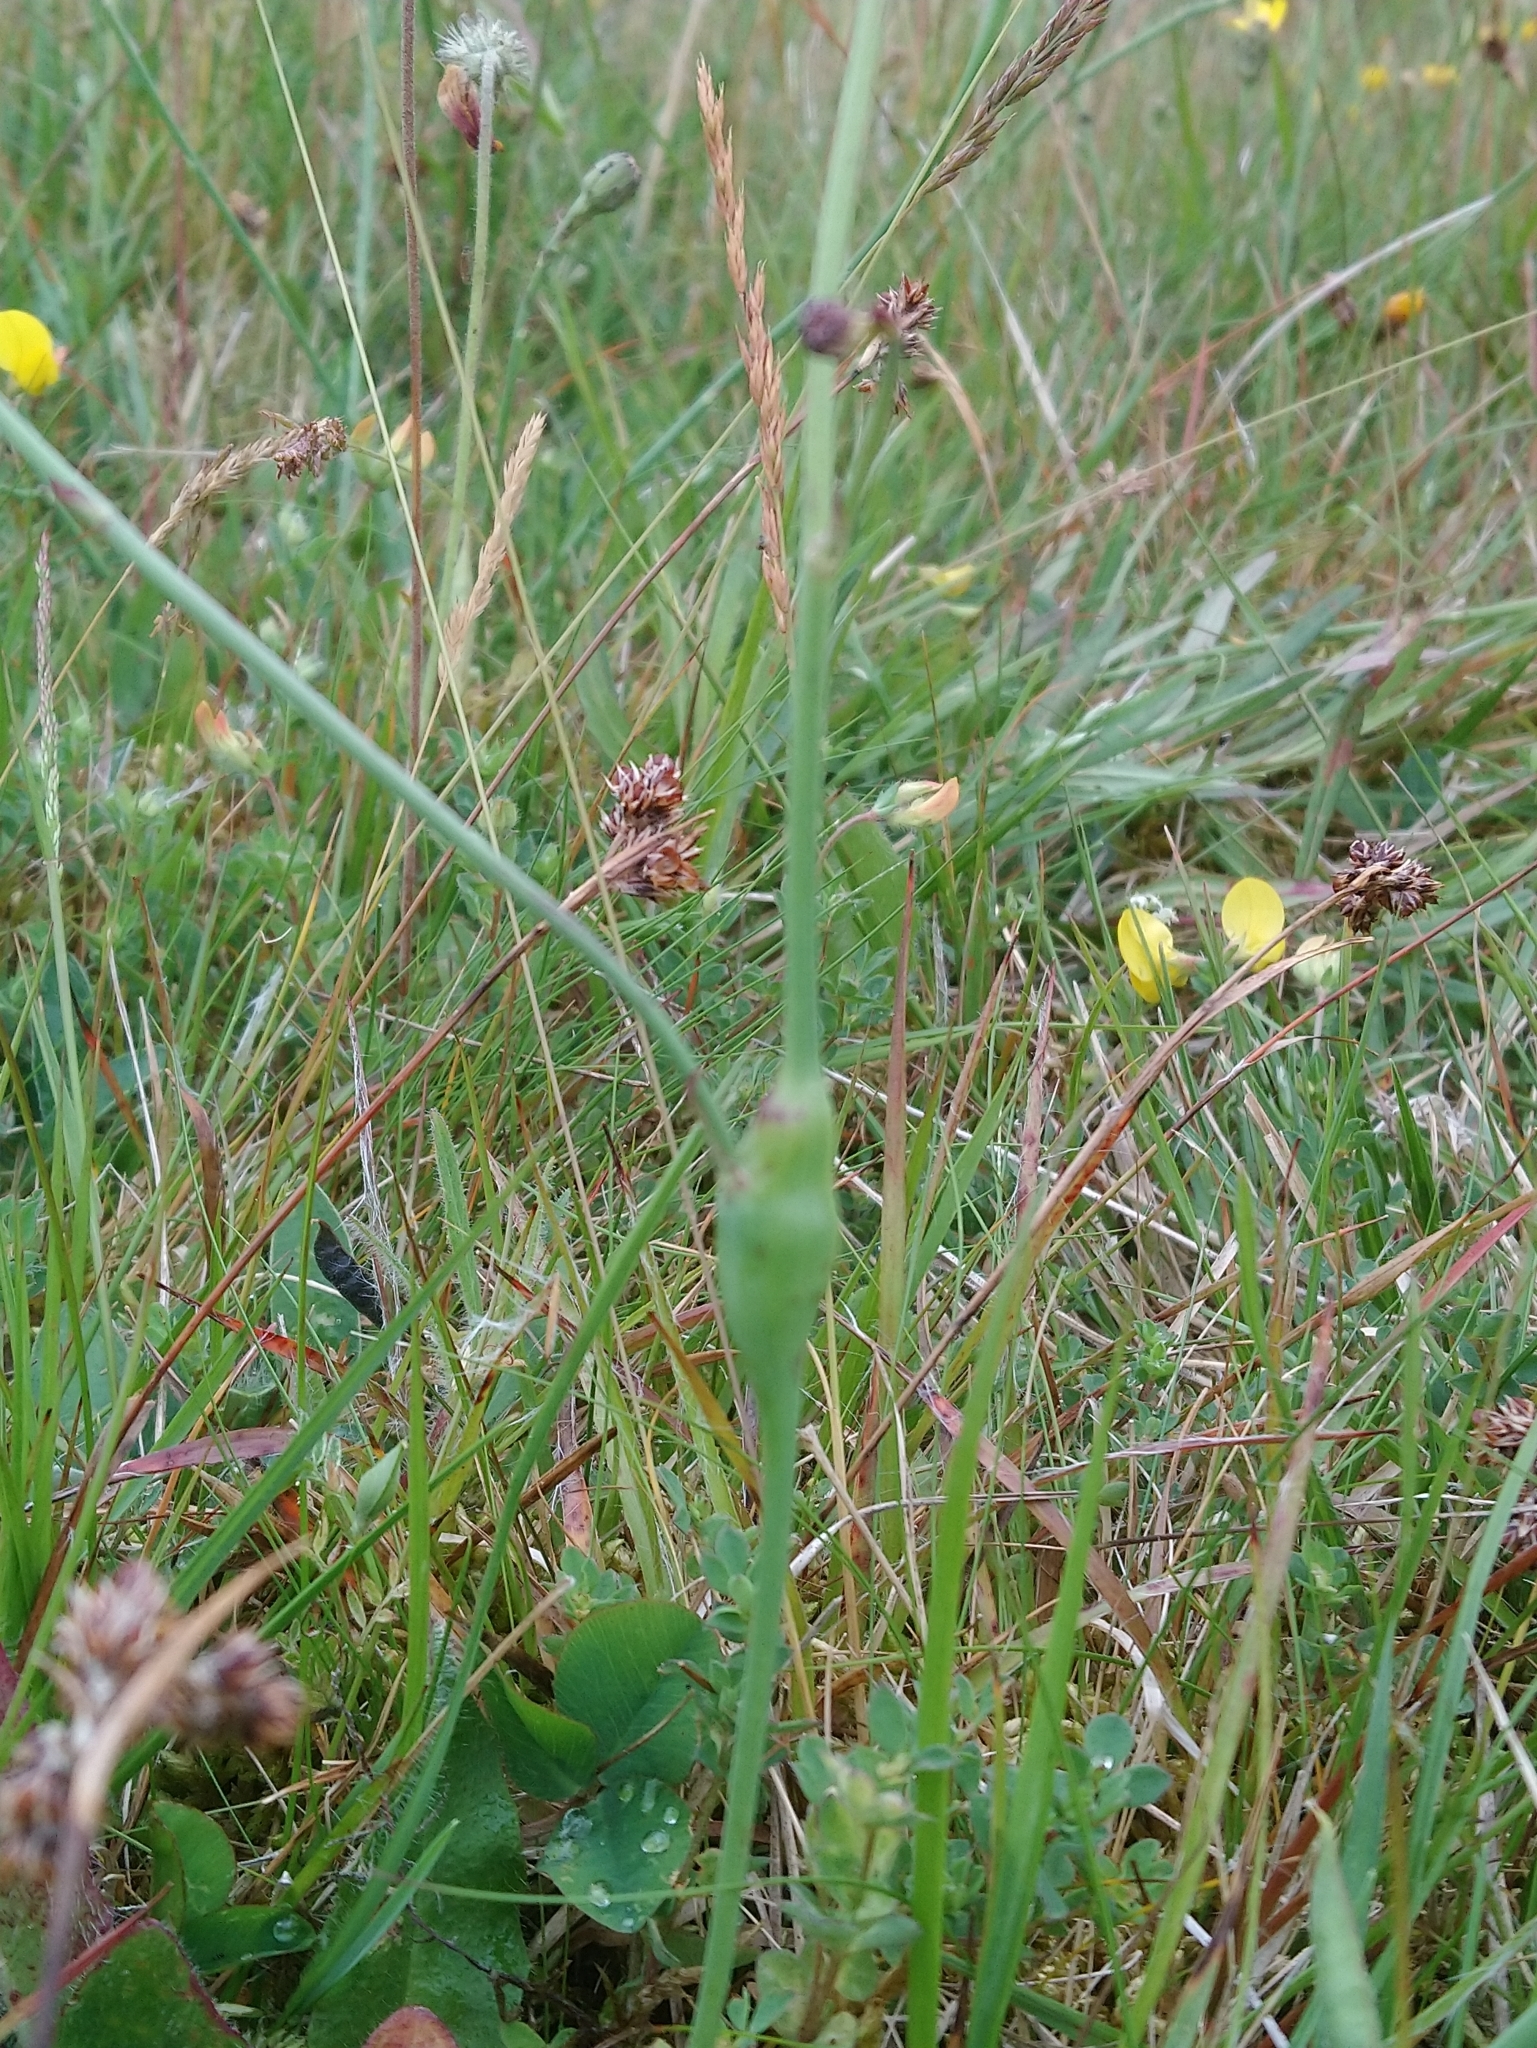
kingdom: Animalia
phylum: Arthropoda
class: Insecta
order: Hymenoptera
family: Cynipidae
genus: Phanacis
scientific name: Phanacis hypochoeridis
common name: Gall wasp
